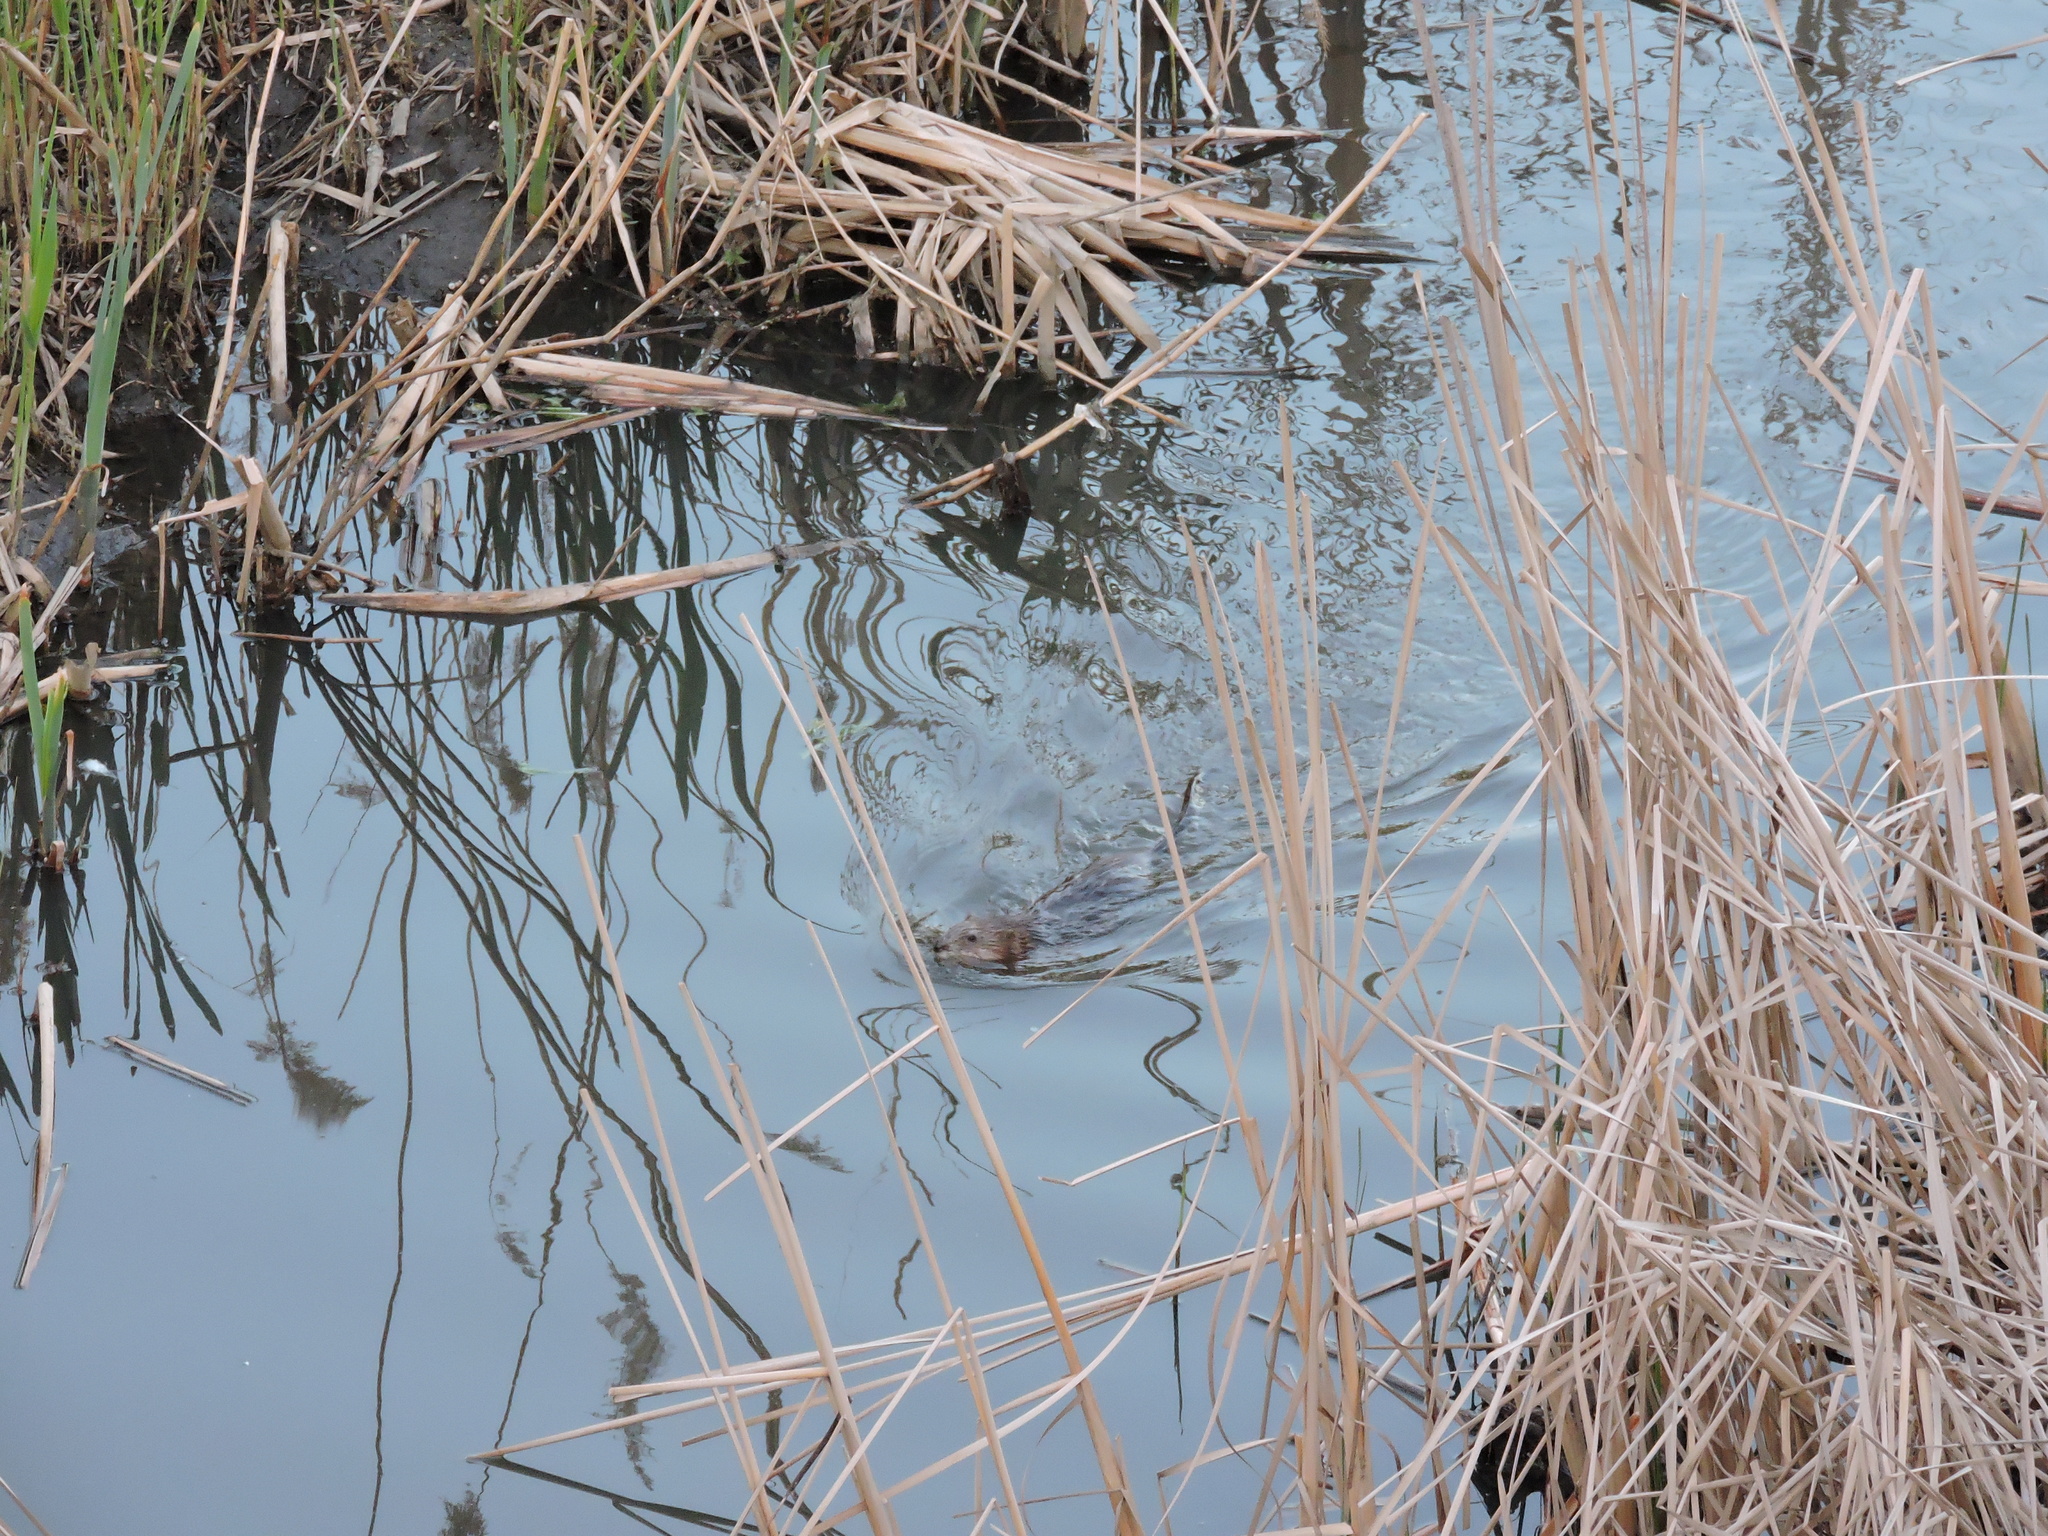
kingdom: Animalia
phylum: Chordata
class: Mammalia
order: Rodentia
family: Cricetidae
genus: Ondatra
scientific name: Ondatra zibethicus
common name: Muskrat
